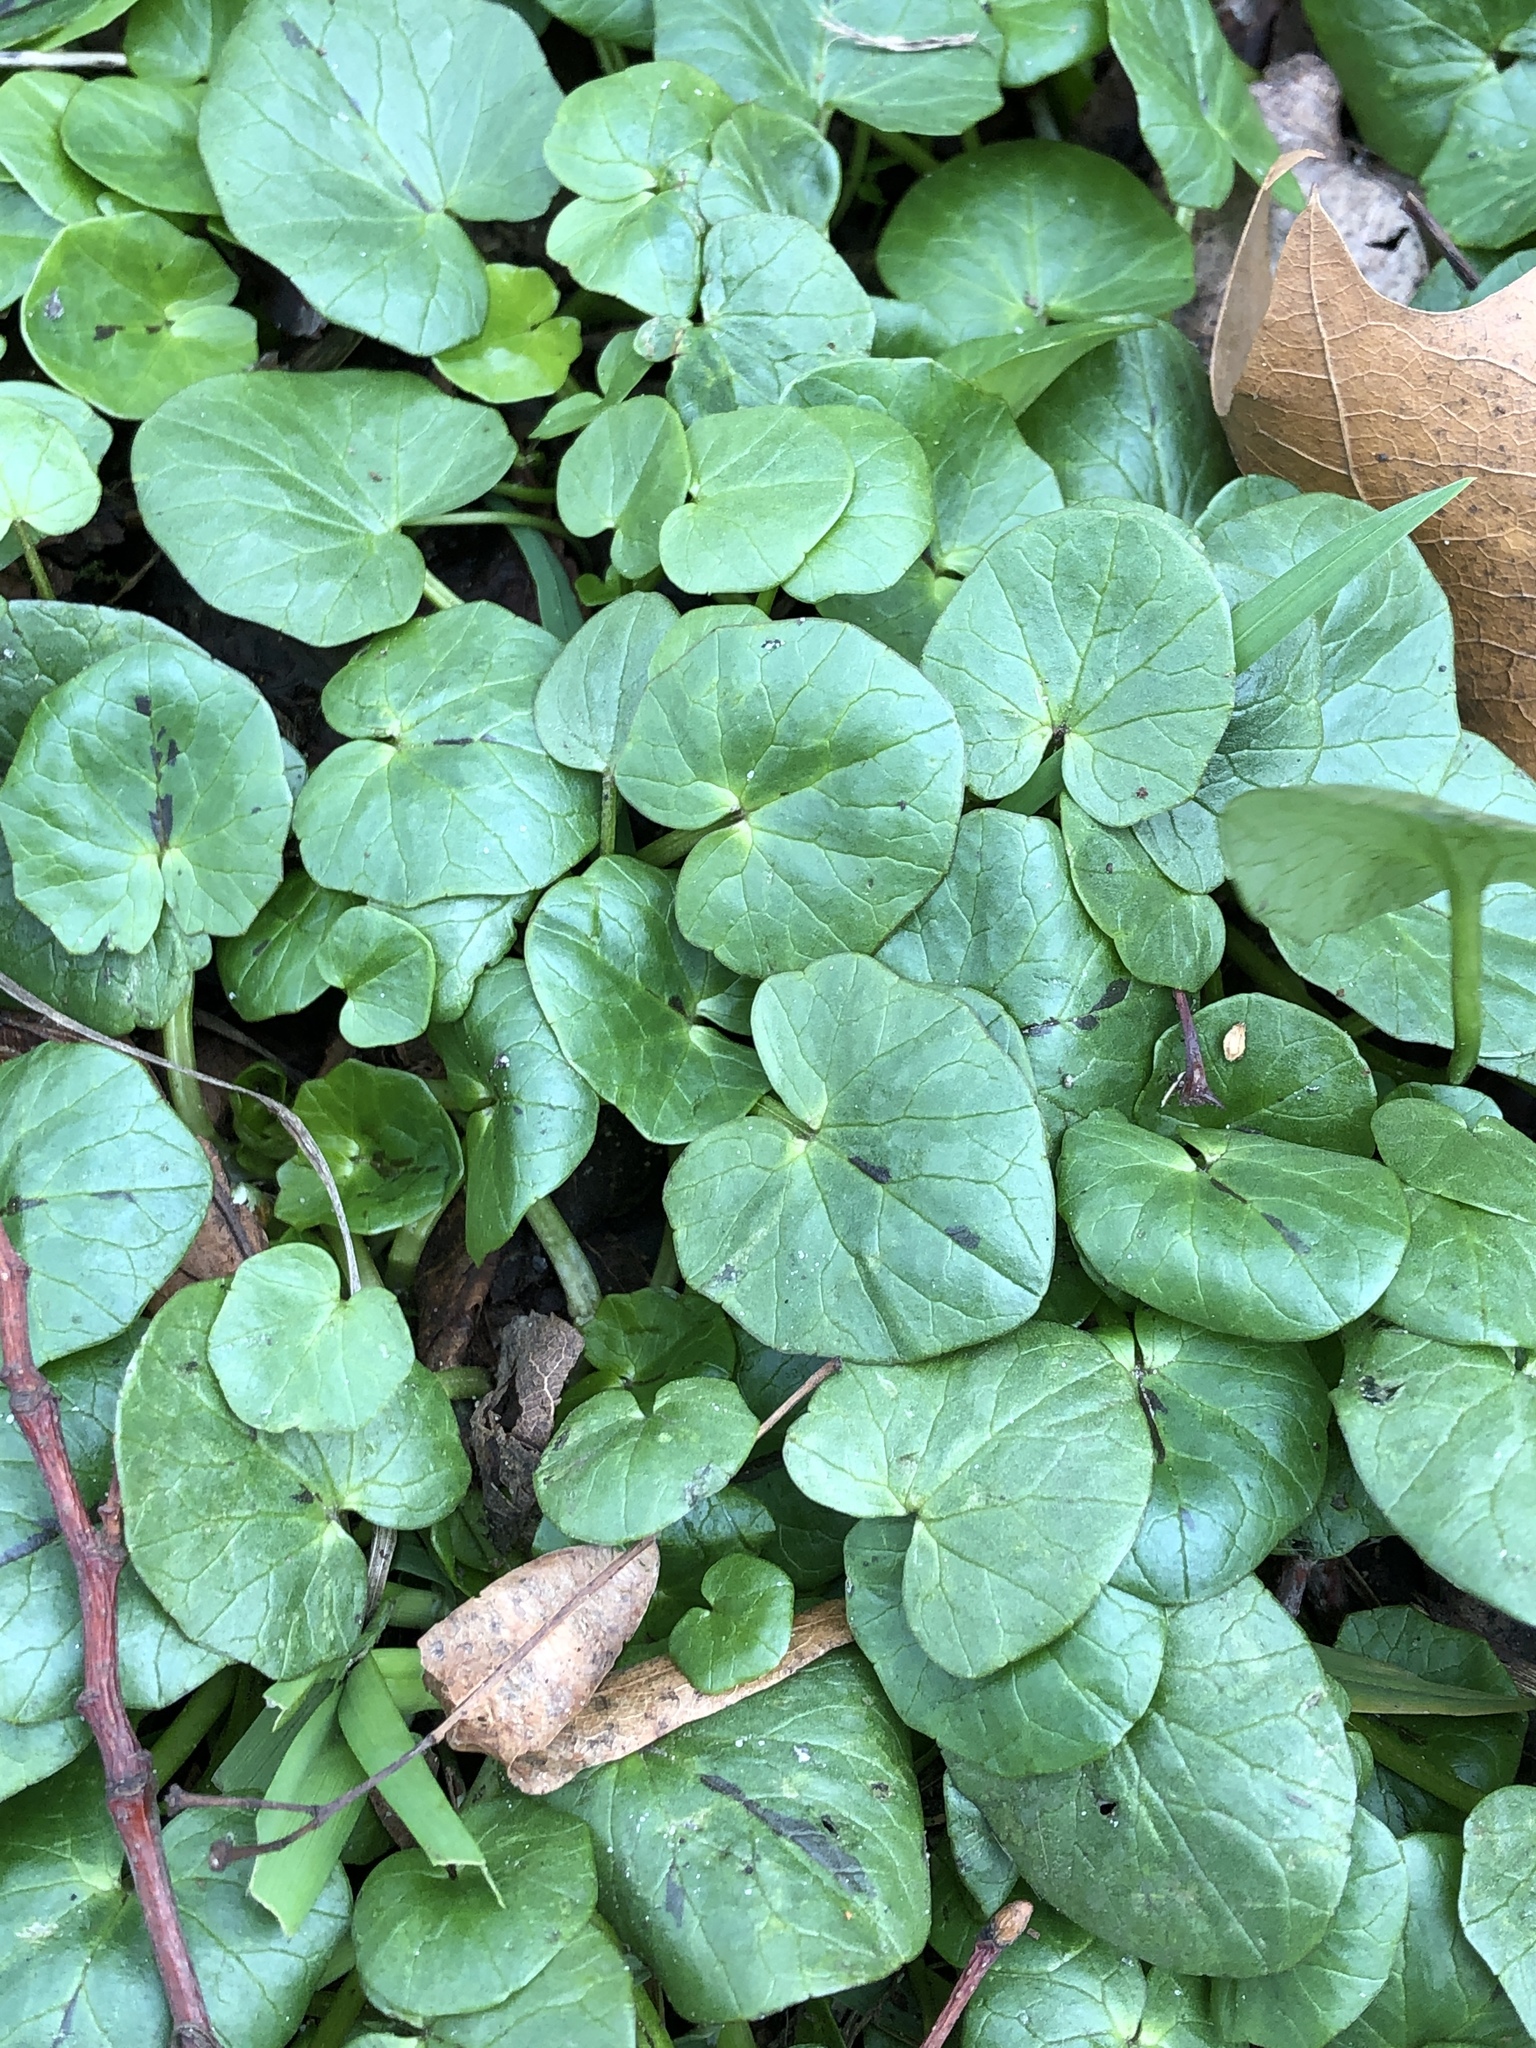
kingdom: Plantae
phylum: Tracheophyta
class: Magnoliopsida
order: Ranunculales
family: Ranunculaceae
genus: Ficaria
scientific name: Ficaria verna
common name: Lesser celandine
